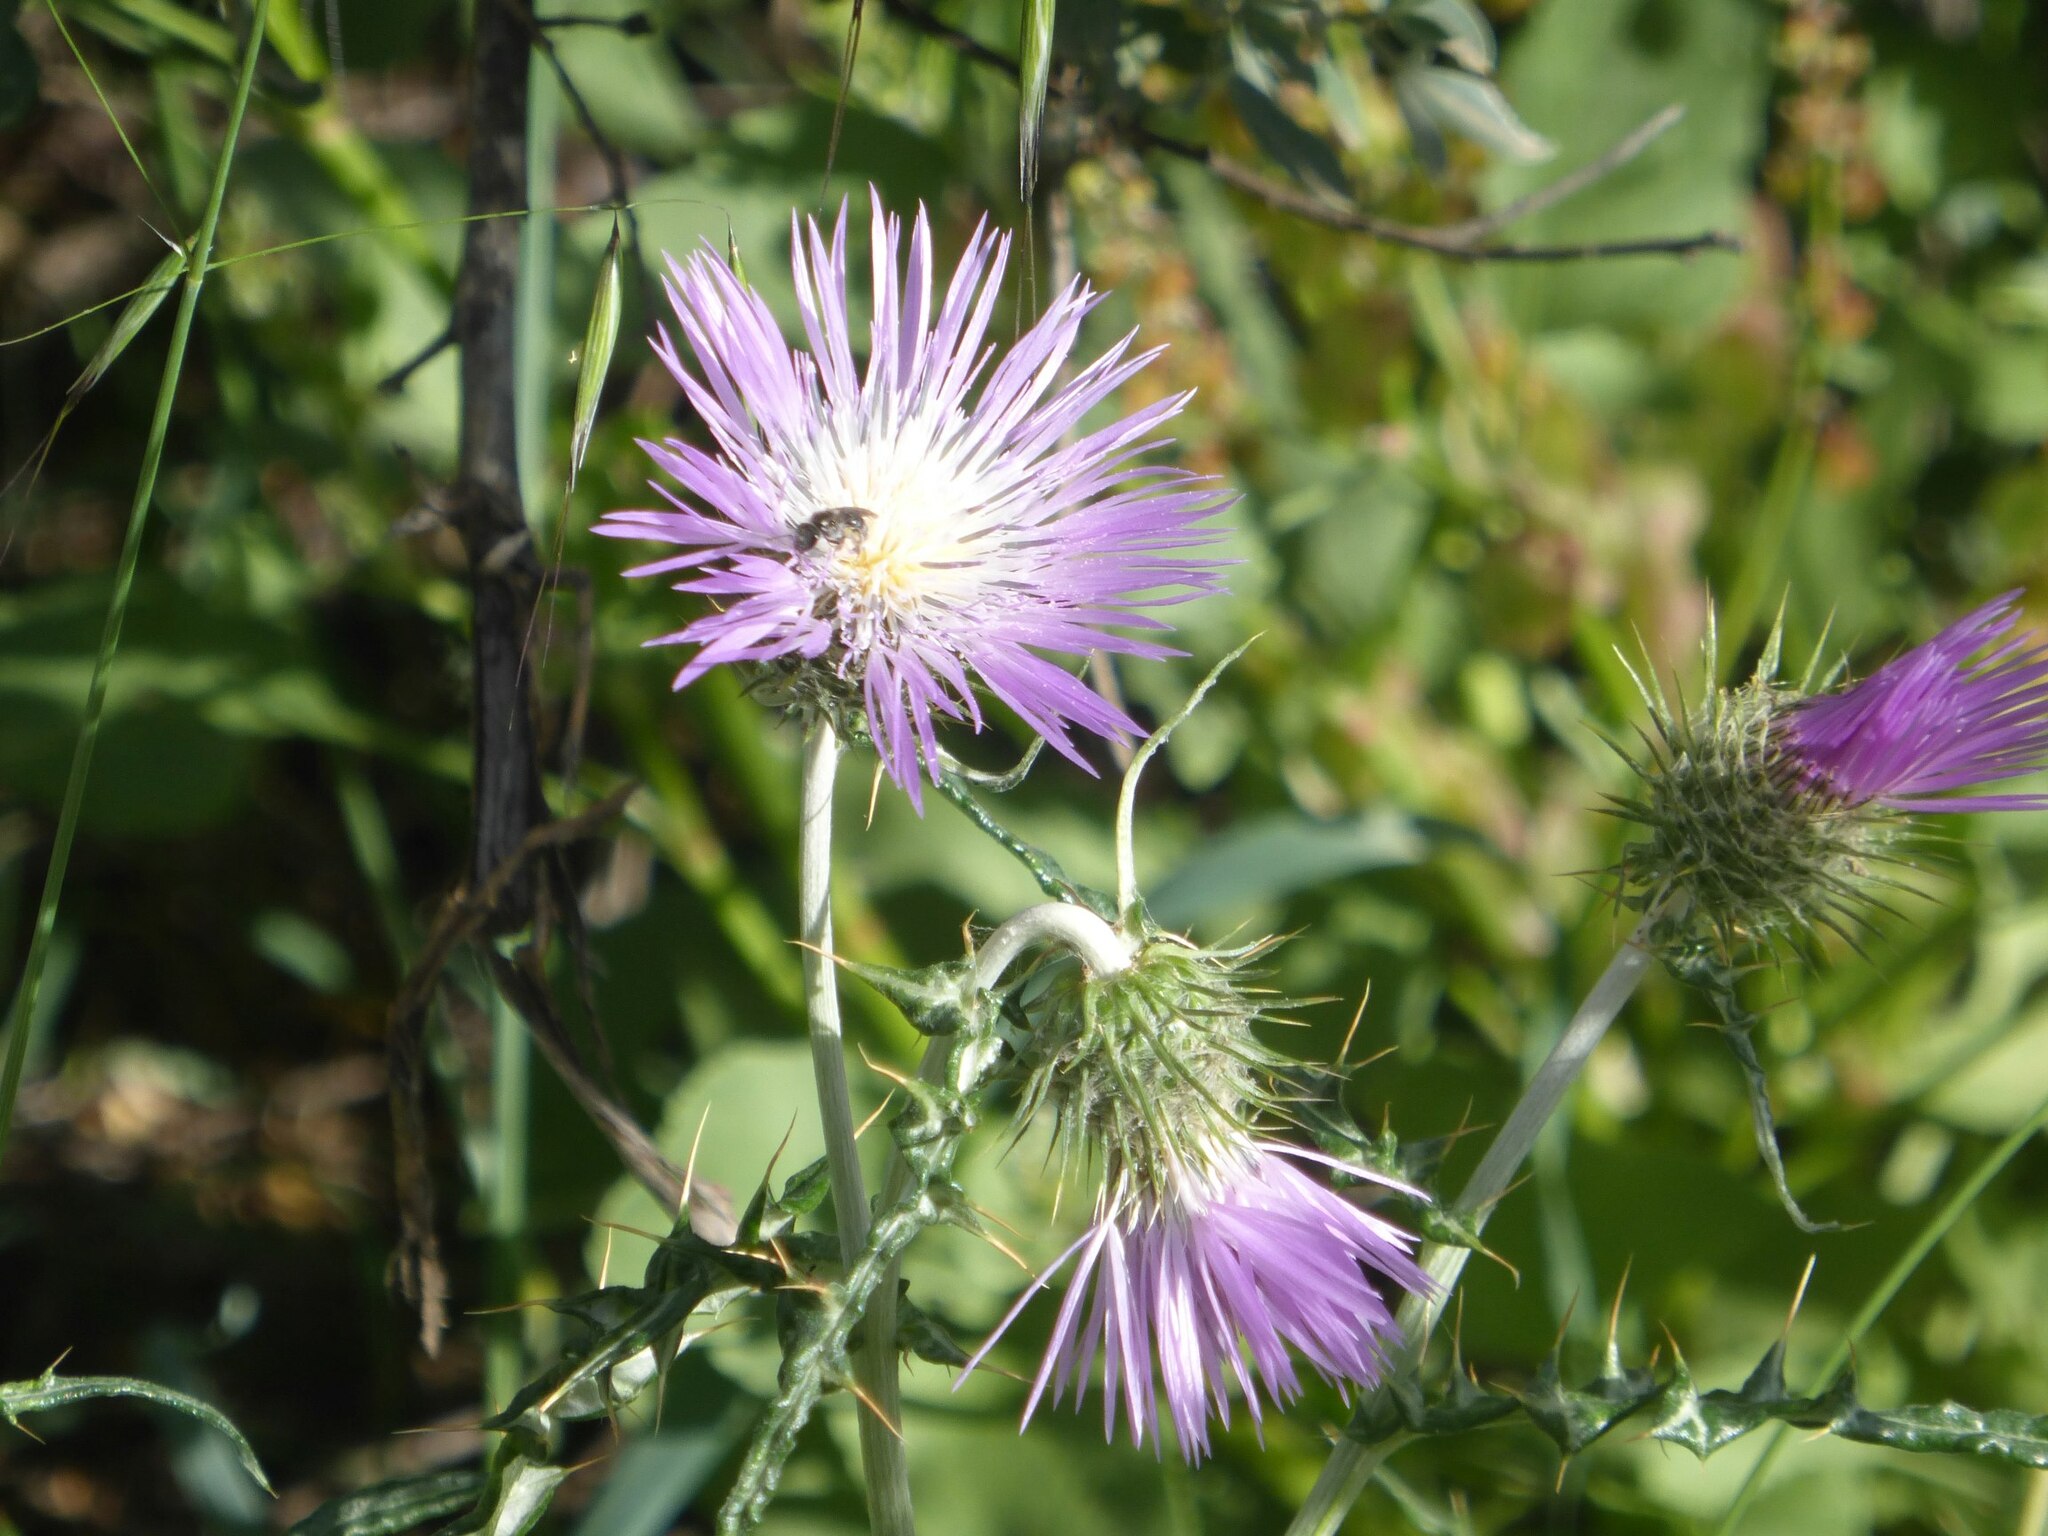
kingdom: Plantae
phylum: Tracheophyta
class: Magnoliopsida
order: Asterales
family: Asteraceae
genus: Galactites
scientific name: Galactites tomentosa
